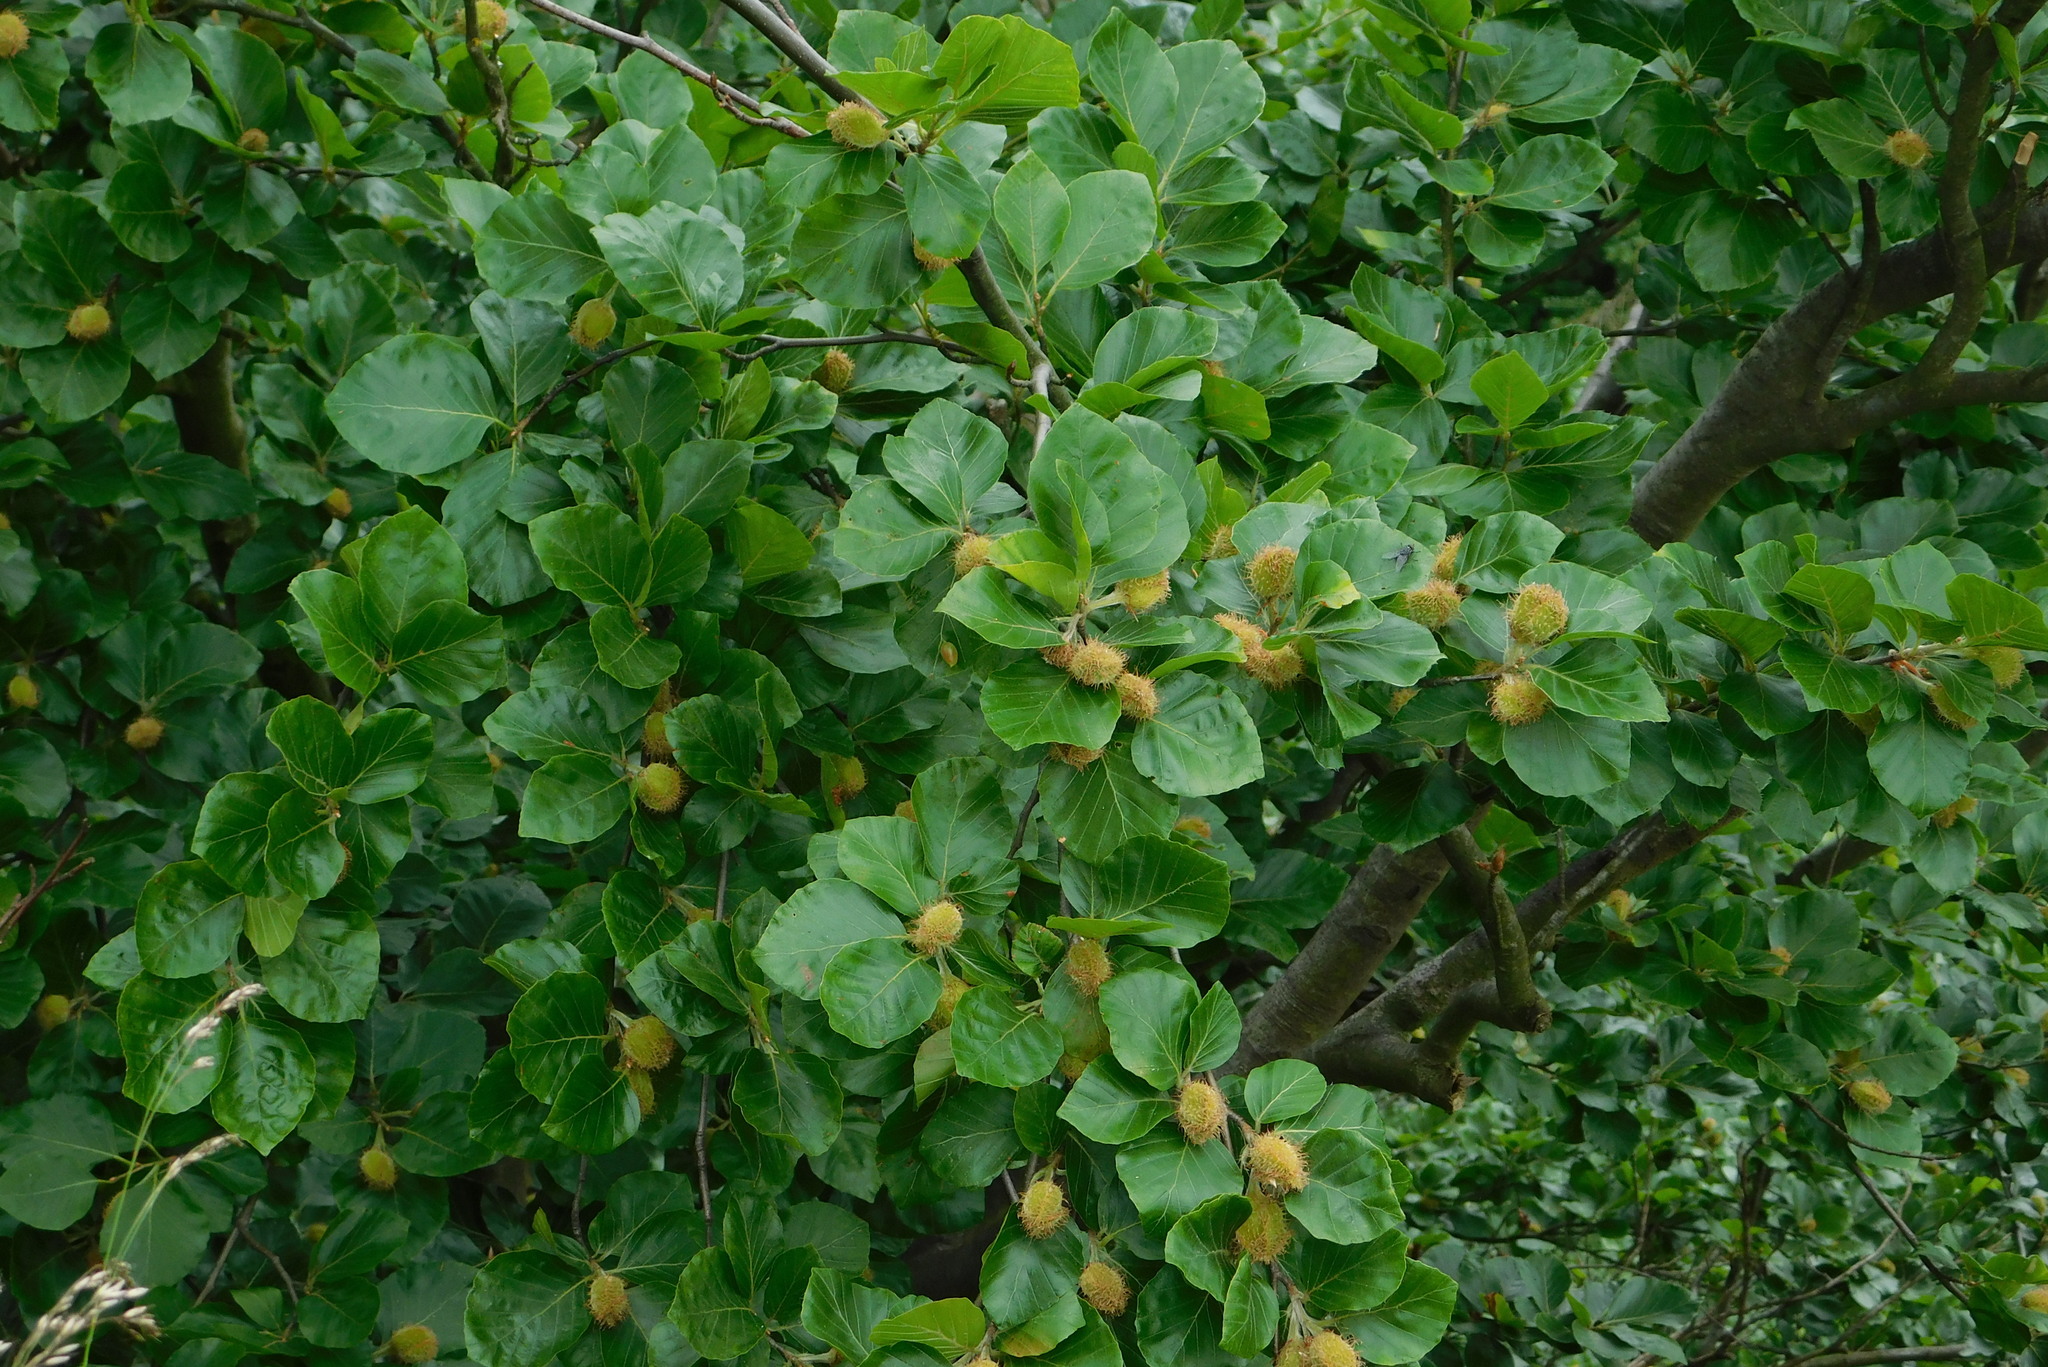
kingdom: Plantae
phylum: Tracheophyta
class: Magnoliopsida
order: Fagales
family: Fagaceae
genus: Fagus
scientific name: Fagus sylvatica
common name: Beech
